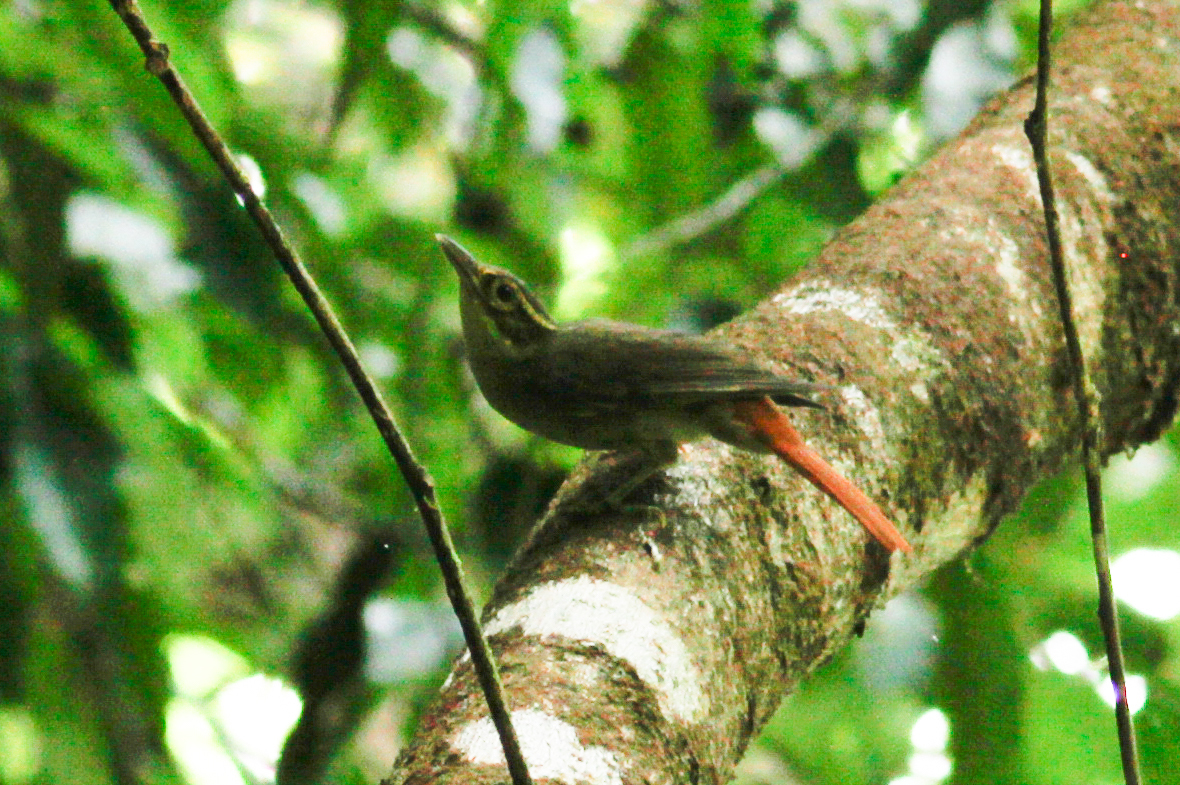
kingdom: Animalia
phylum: Chordata
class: Aves
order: Passeriformes
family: Furnariidae
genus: Philydor
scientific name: Philydor erythrocercum
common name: Rufous-rumped foliage-gleaner
